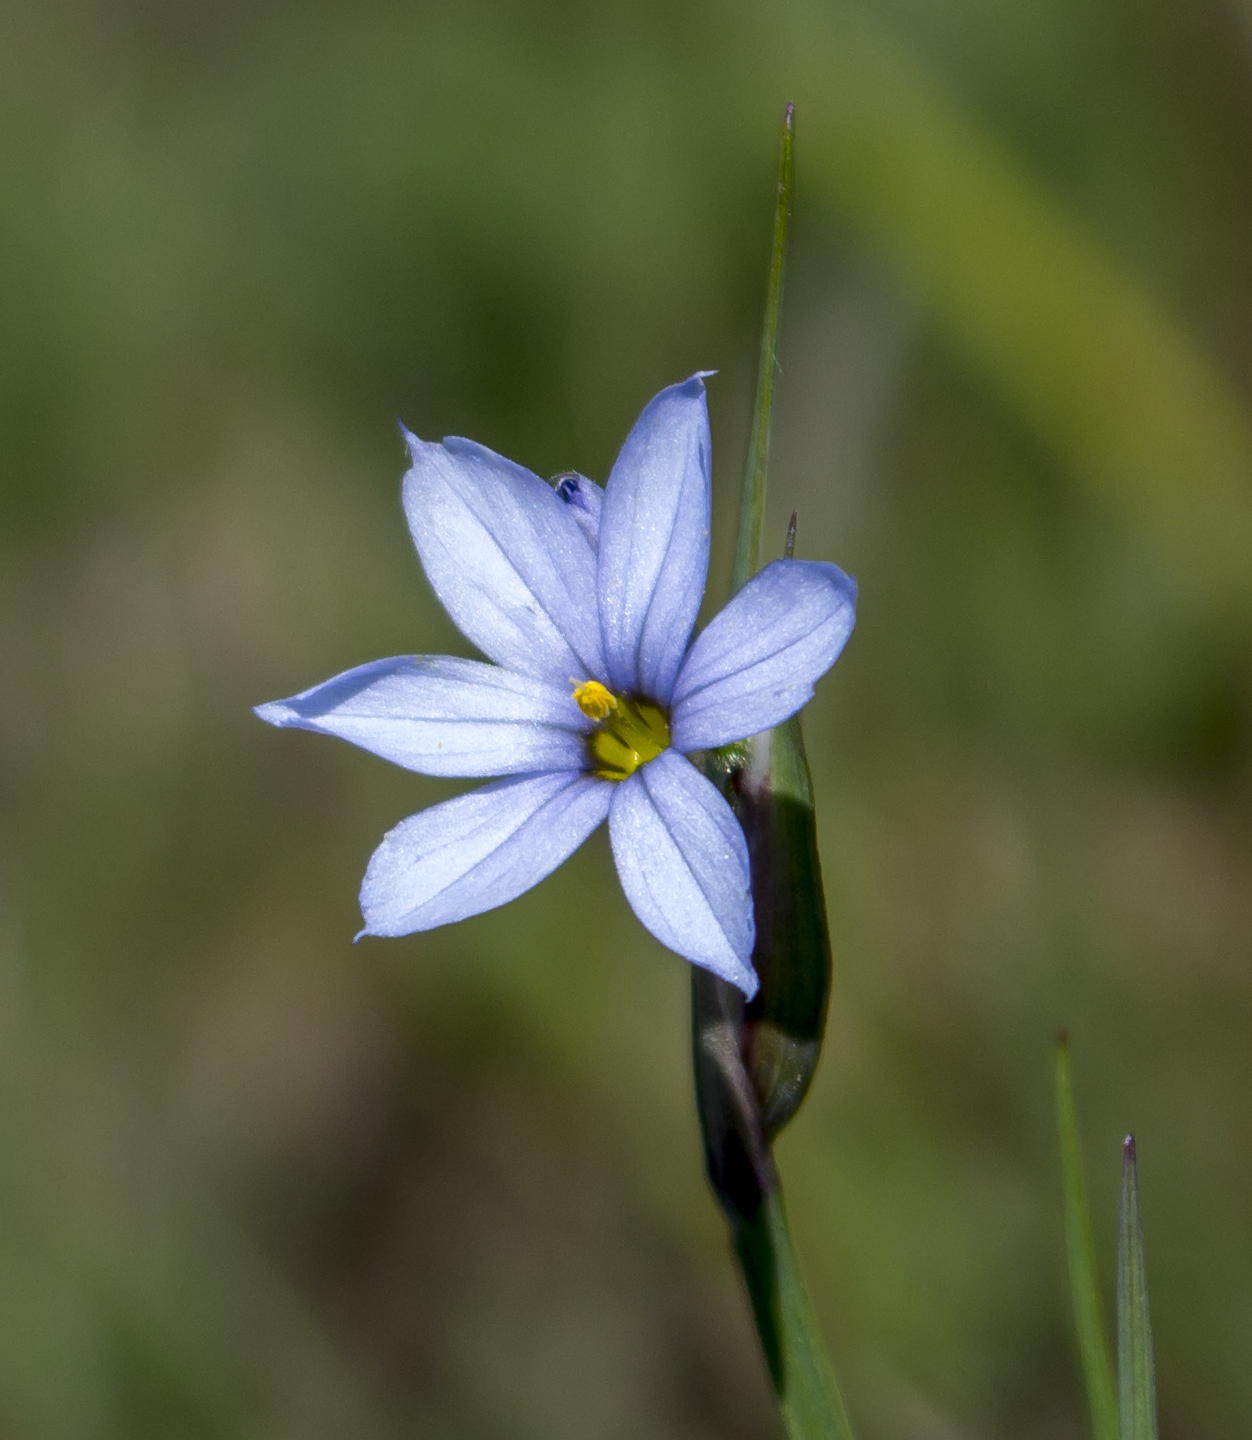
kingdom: Plantae
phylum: Tracheophyta
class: Liliopsida
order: Asparagales
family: Iridaceae
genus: Sisyrinchium
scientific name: Sisyrinchium campestre
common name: Prairie blue-eyed-grass
